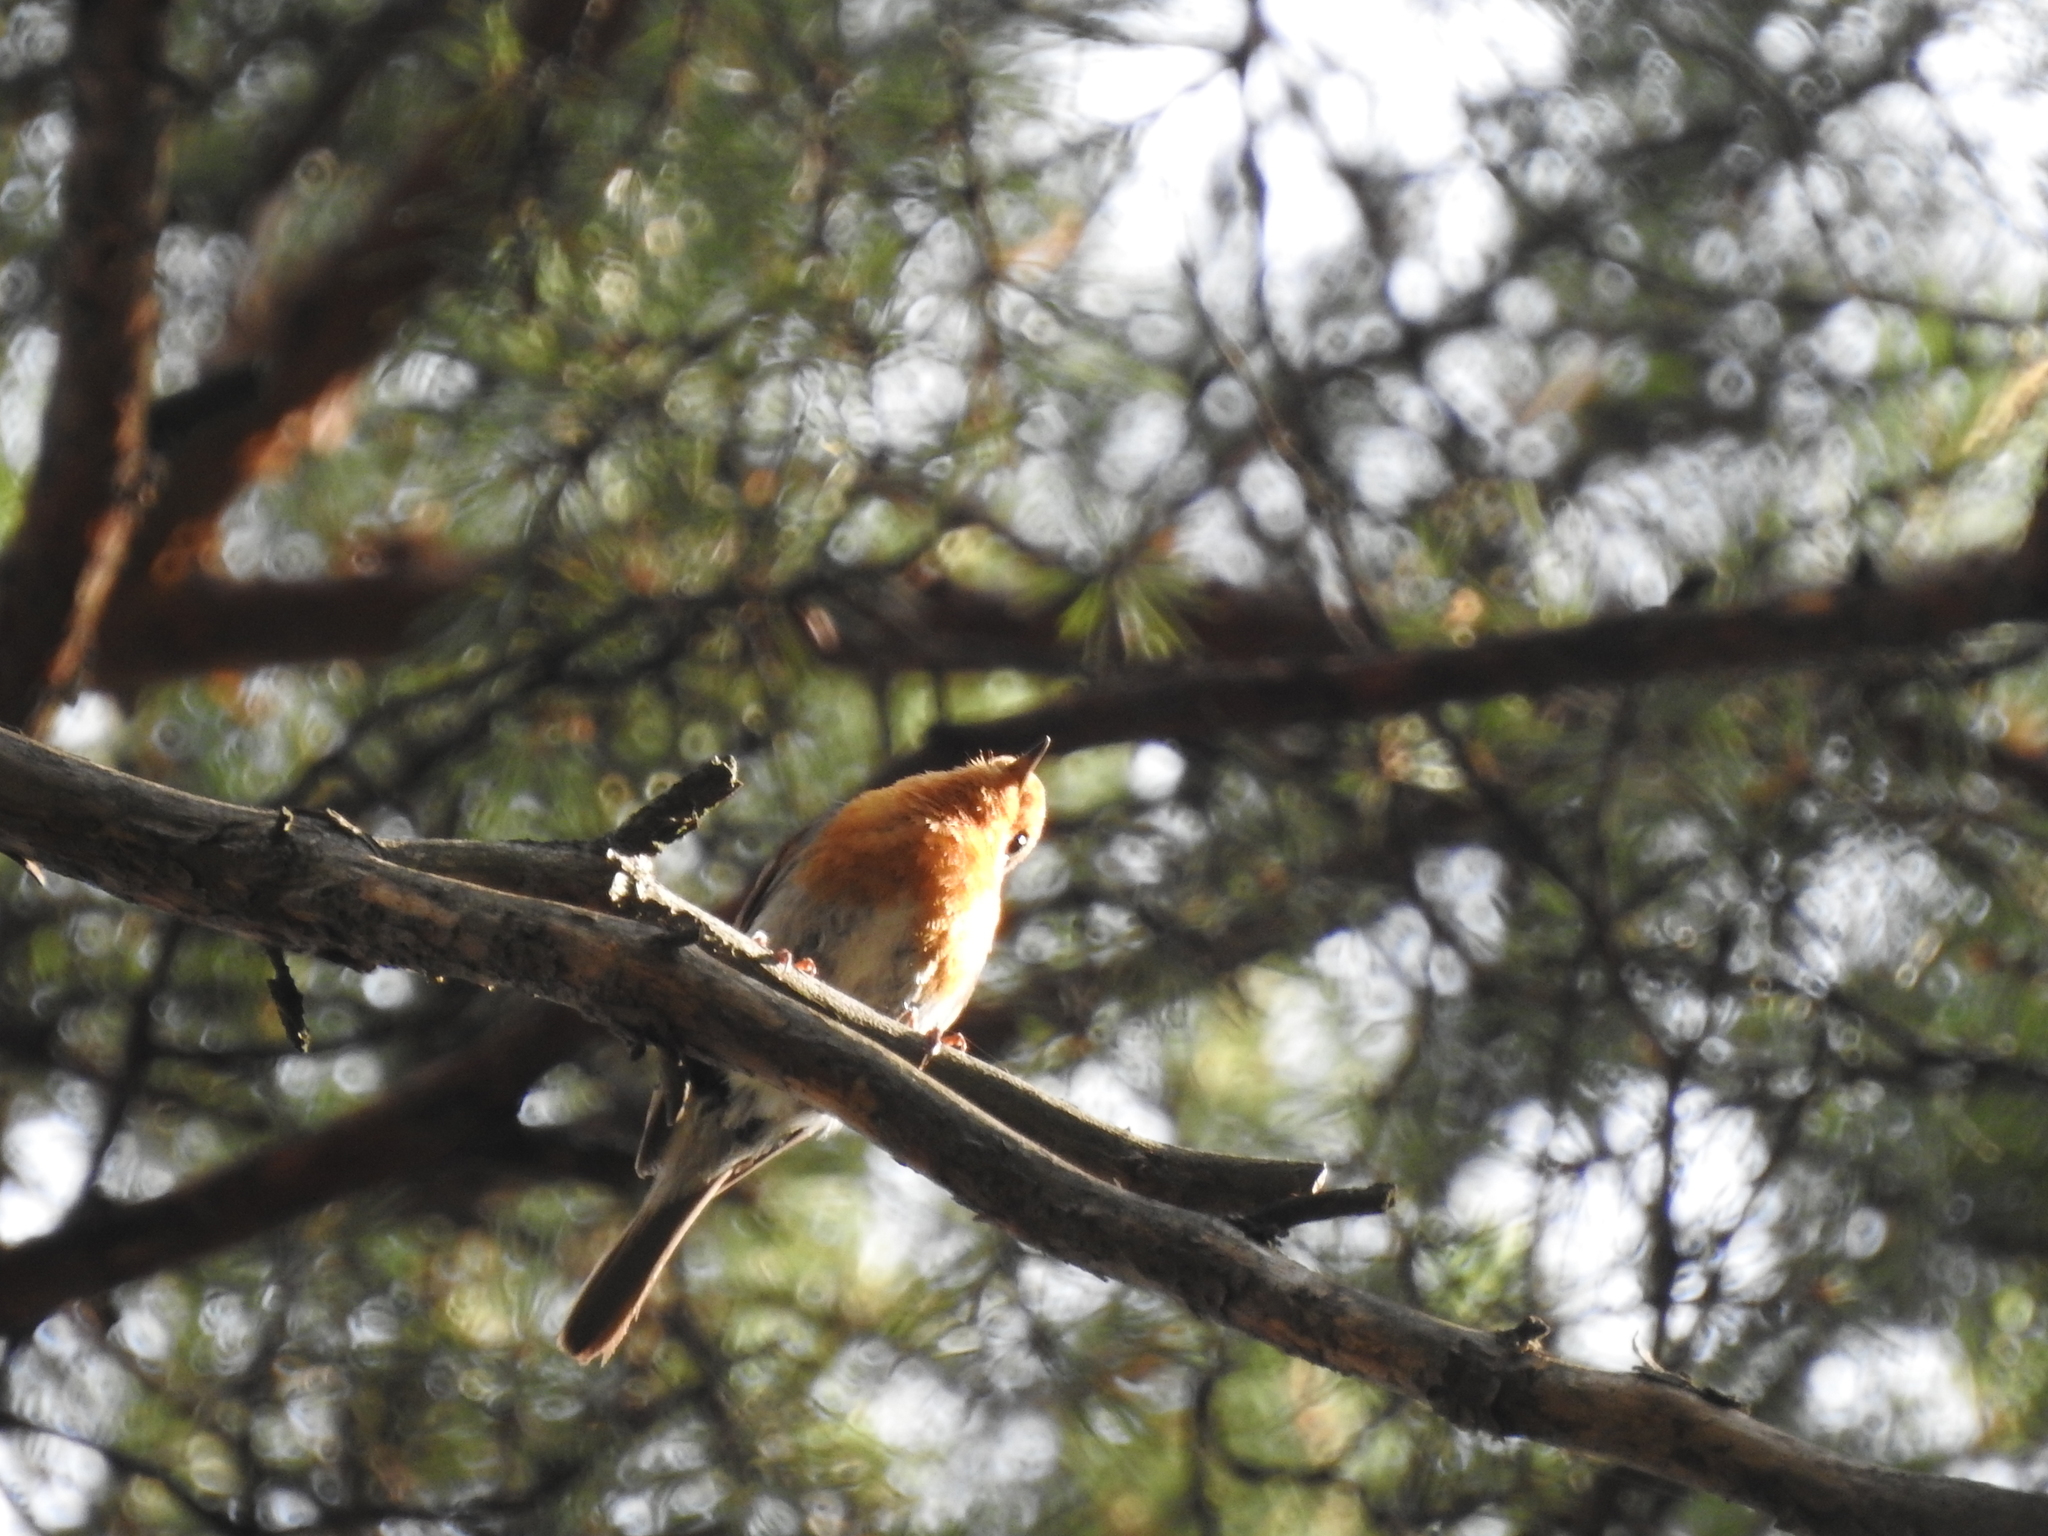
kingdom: Animalia
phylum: Chordata
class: Aves
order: Passeriformes
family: Muscicapidae
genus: Erithacus
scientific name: Erithacus rubecula
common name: European robin
